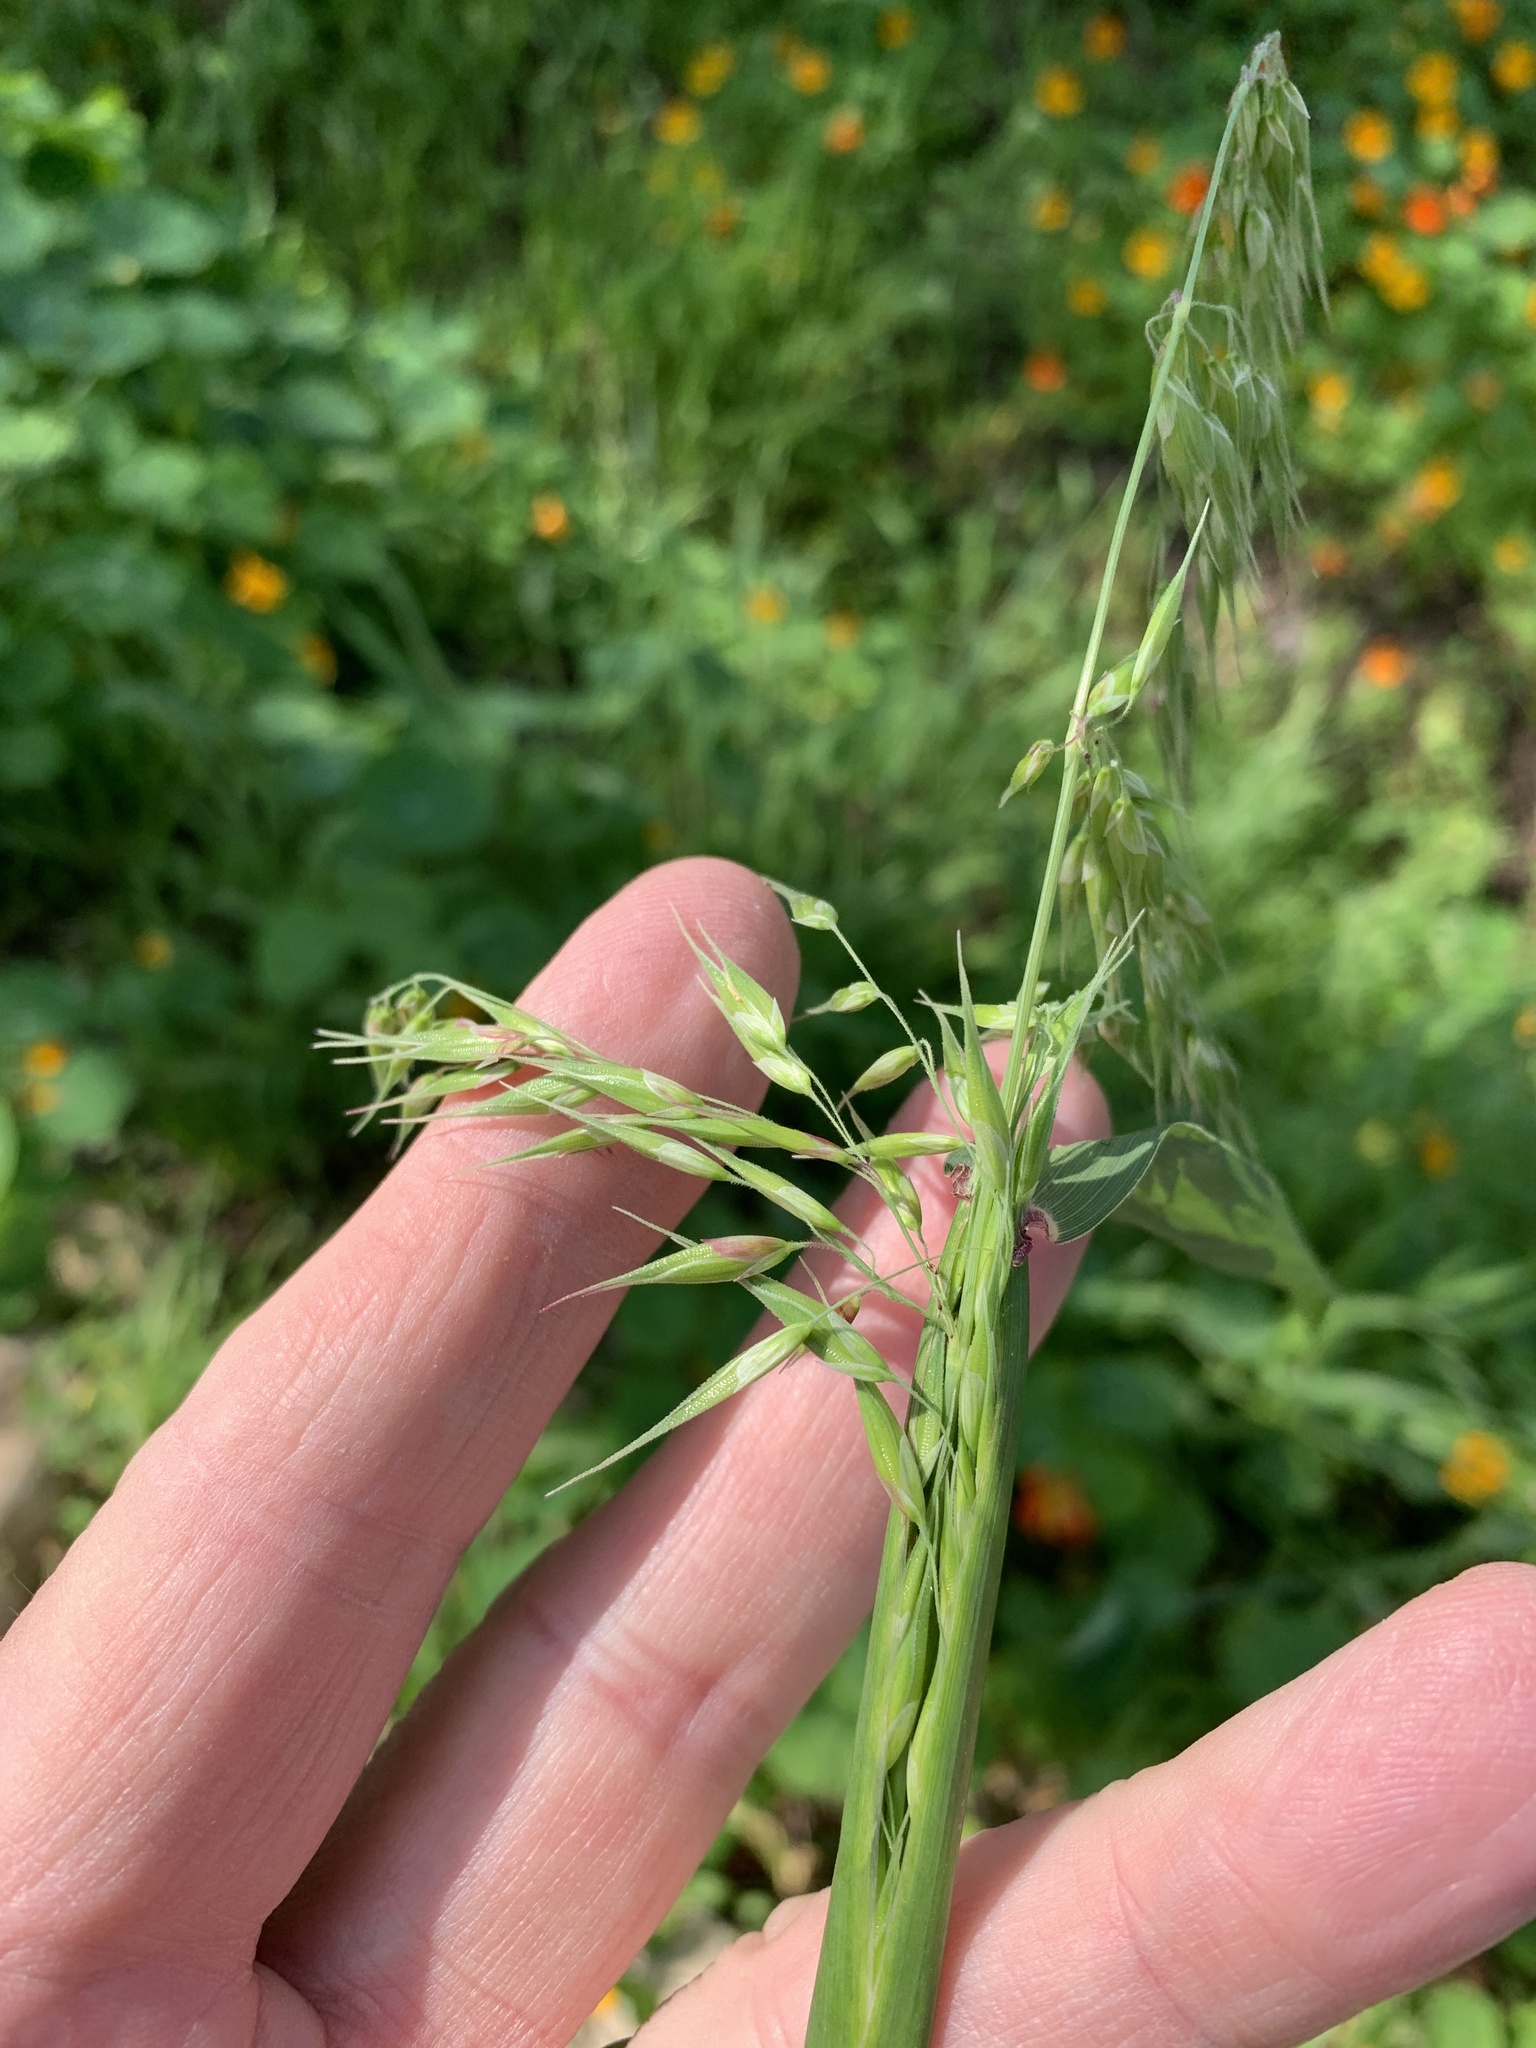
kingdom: Plantae
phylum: Tracheophyta
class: Liliopsida
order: Poales
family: Poaceae
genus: Ehrharta
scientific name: Ehrharta longiflora
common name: Longflowered veldtgrass
